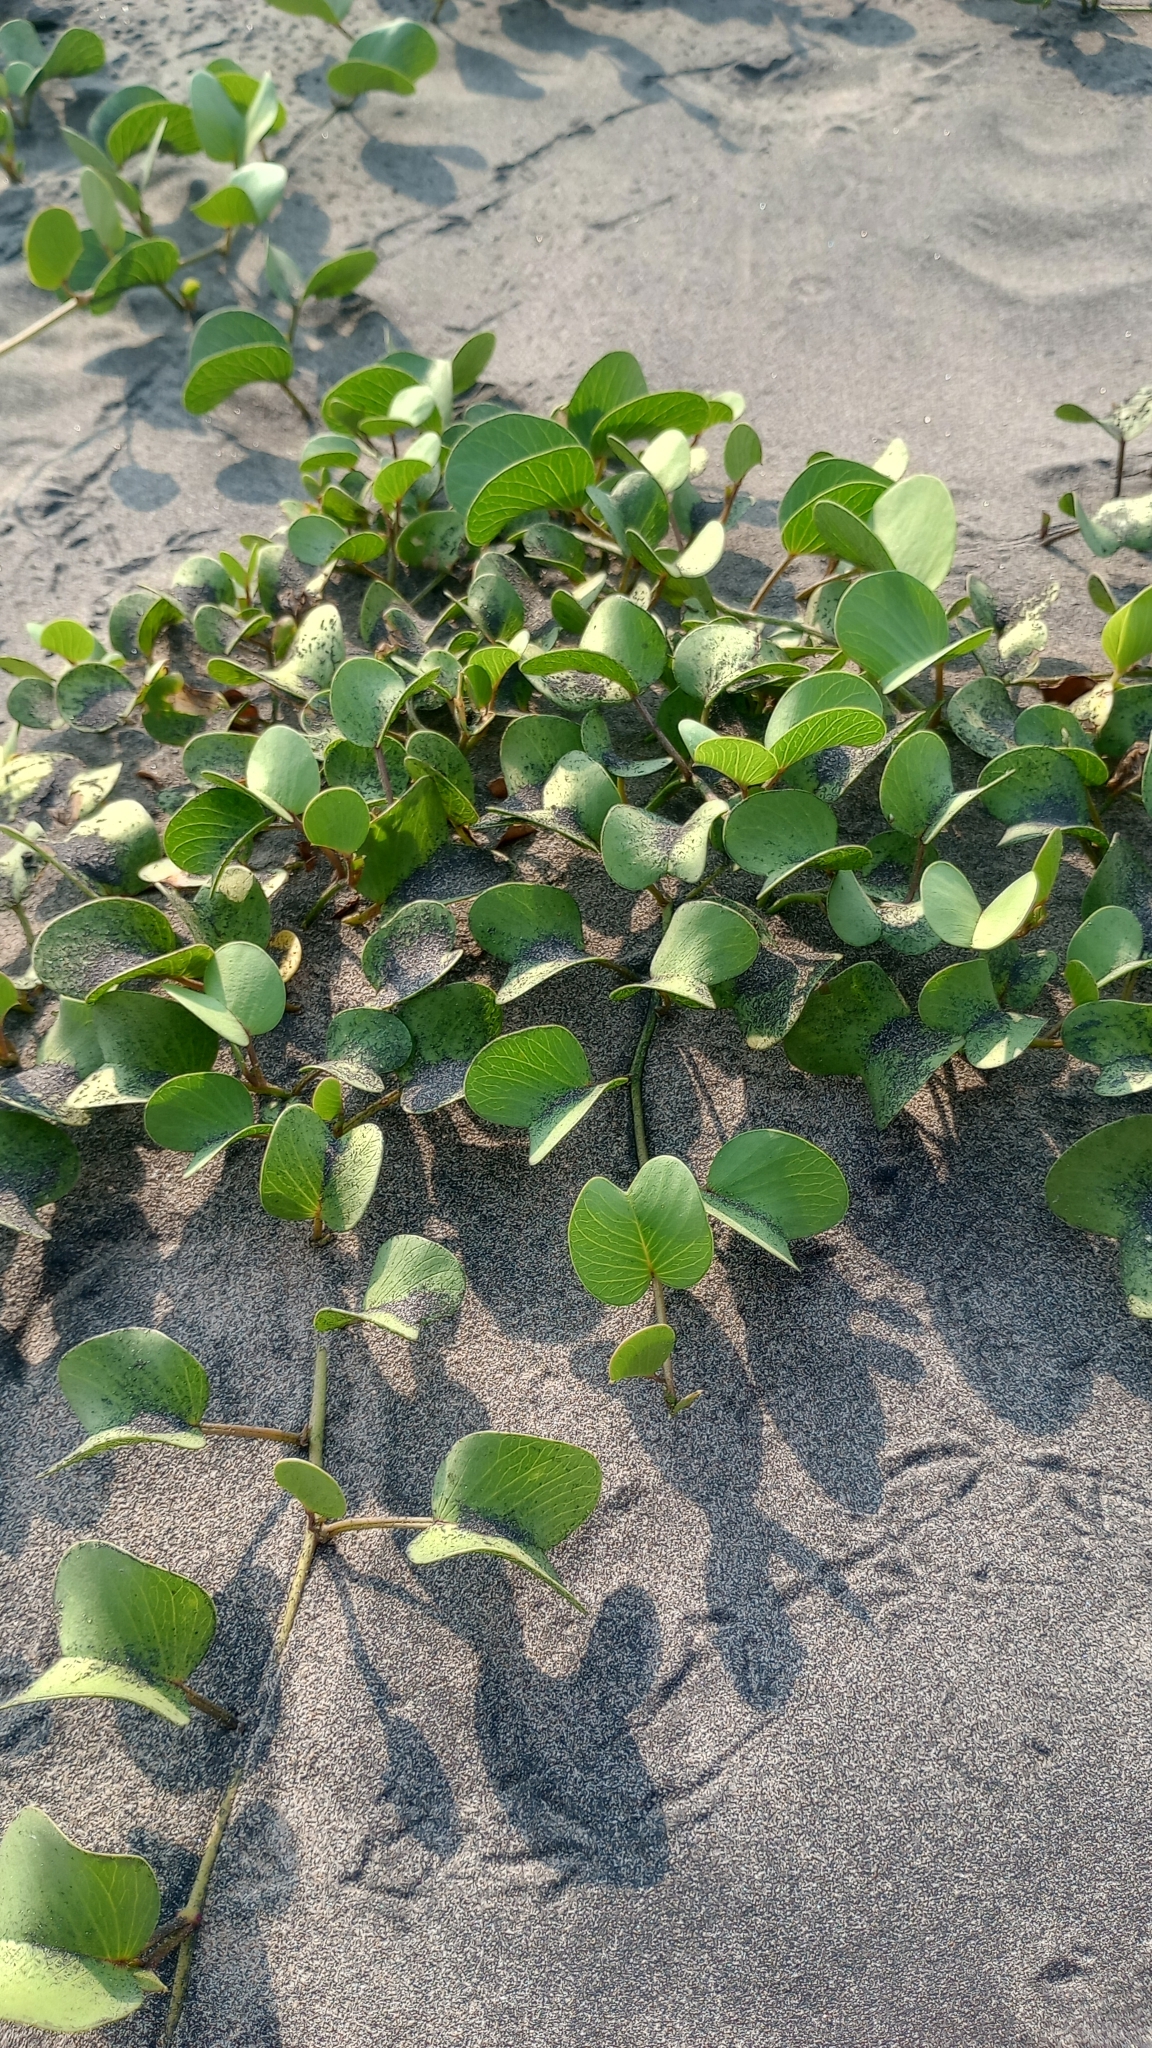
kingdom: Plantae
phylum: Tracheophyta
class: Magnoliopsida
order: Solanales
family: Convolvulaceae
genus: Ipomoea
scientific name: Ipomoea pes-caprae
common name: Beach morning glory
